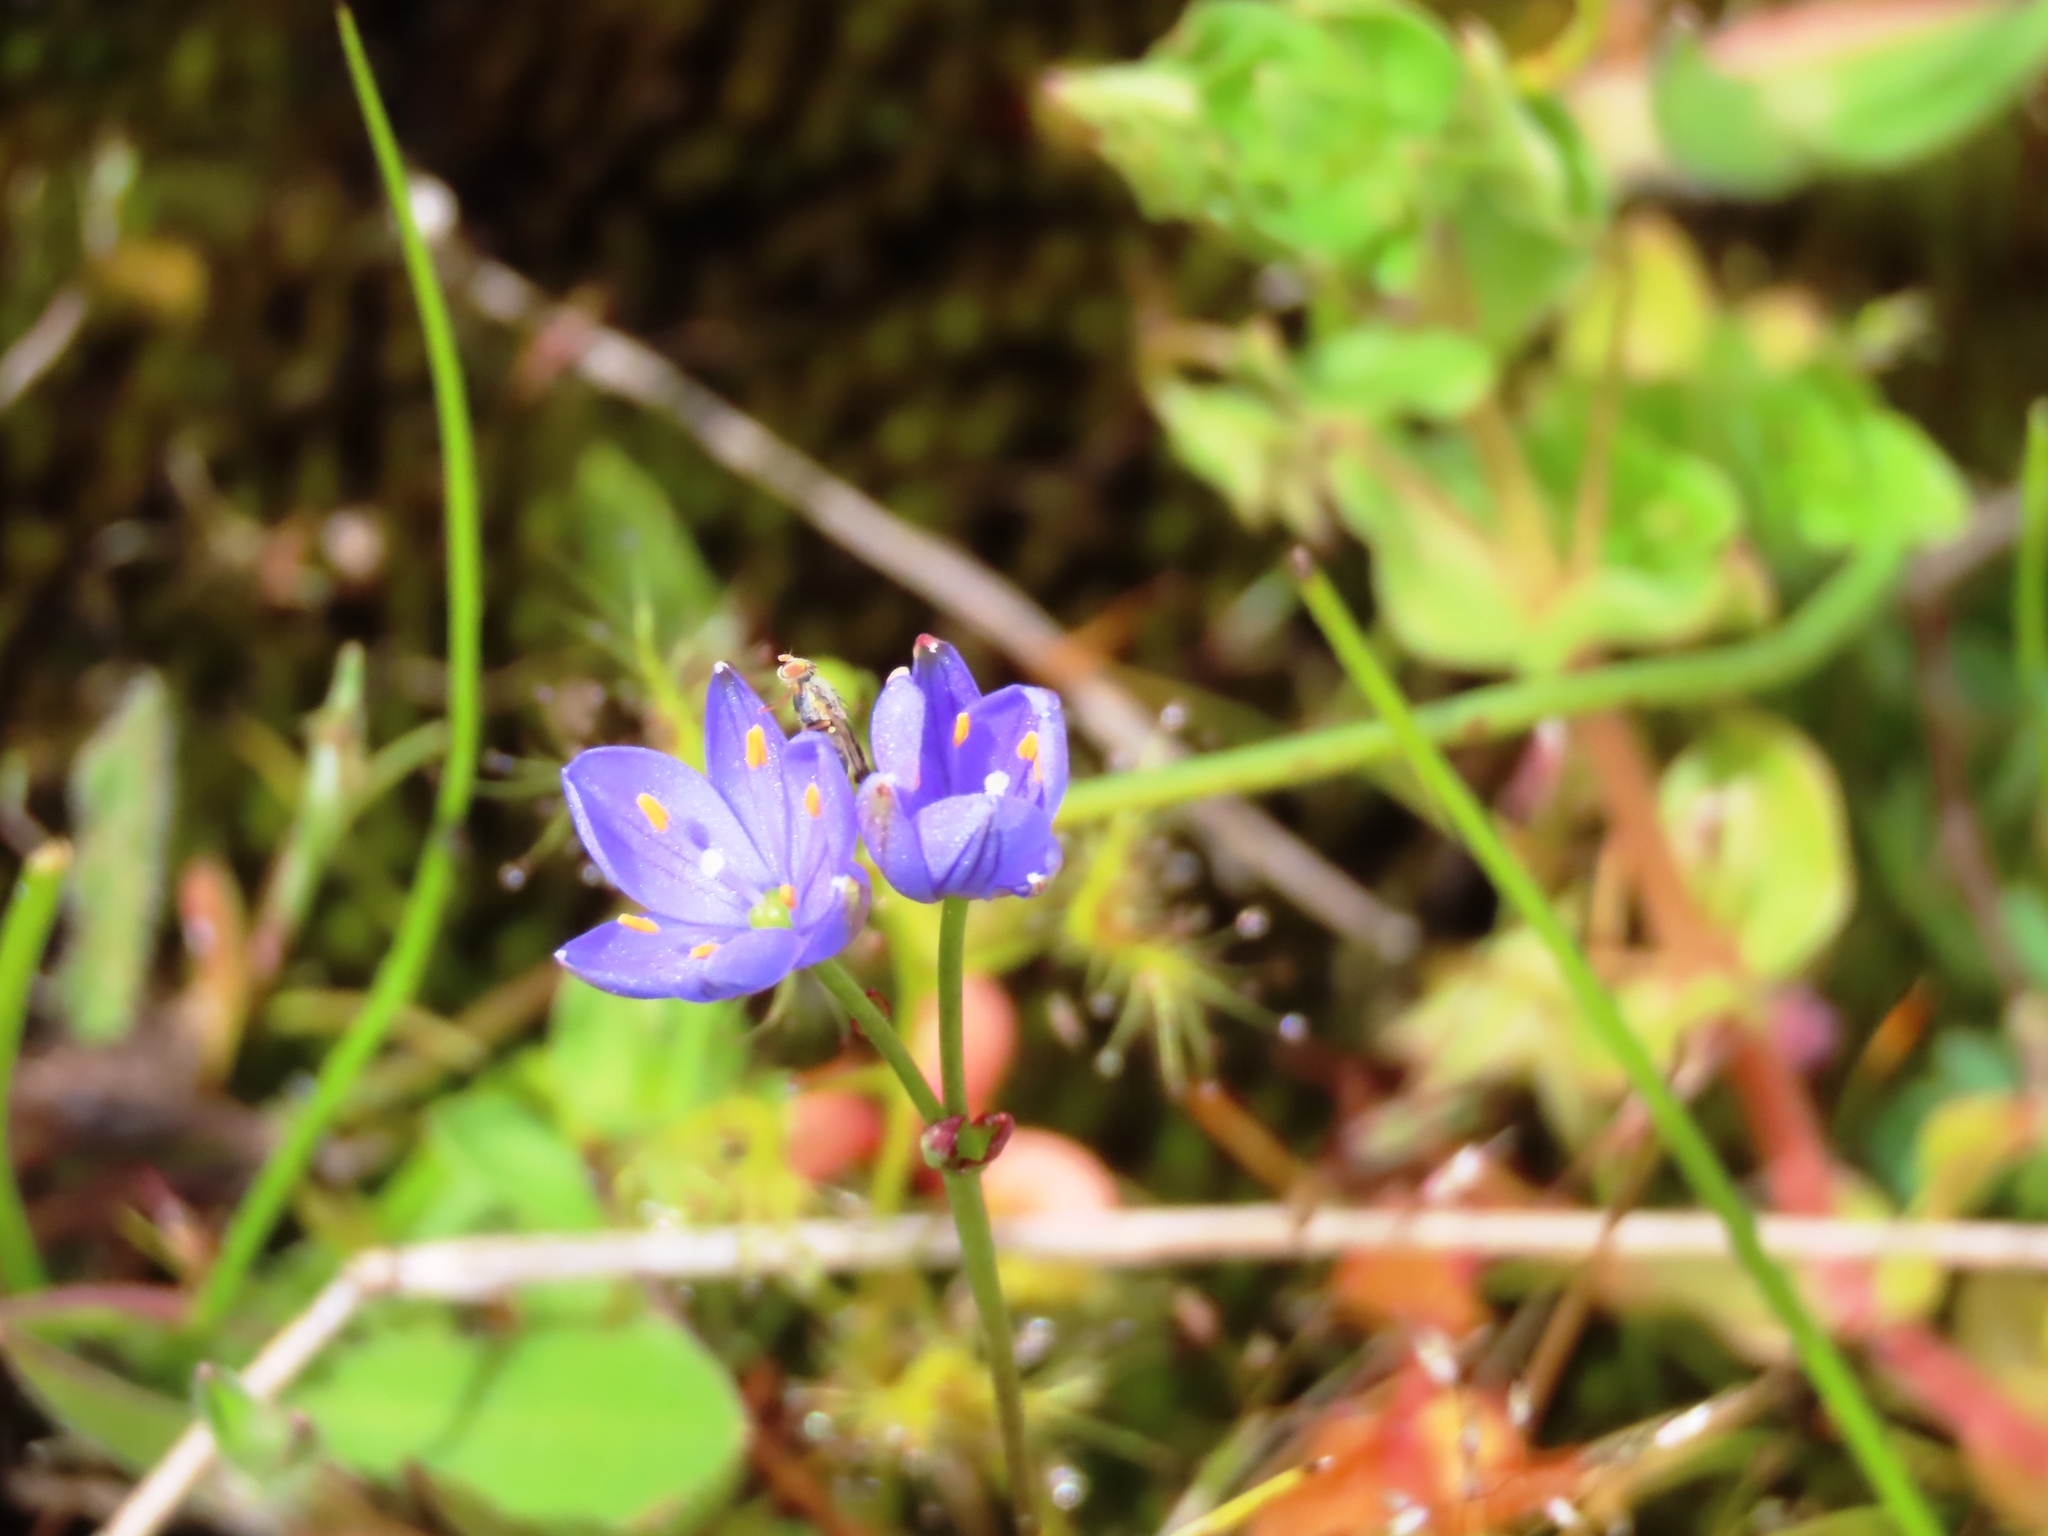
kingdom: Plantae
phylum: Tracheophyta
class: Liliopsida
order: Asparagales
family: Asphodelaceae
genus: Chamaescilla
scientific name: Chamaescilla corymbosa
